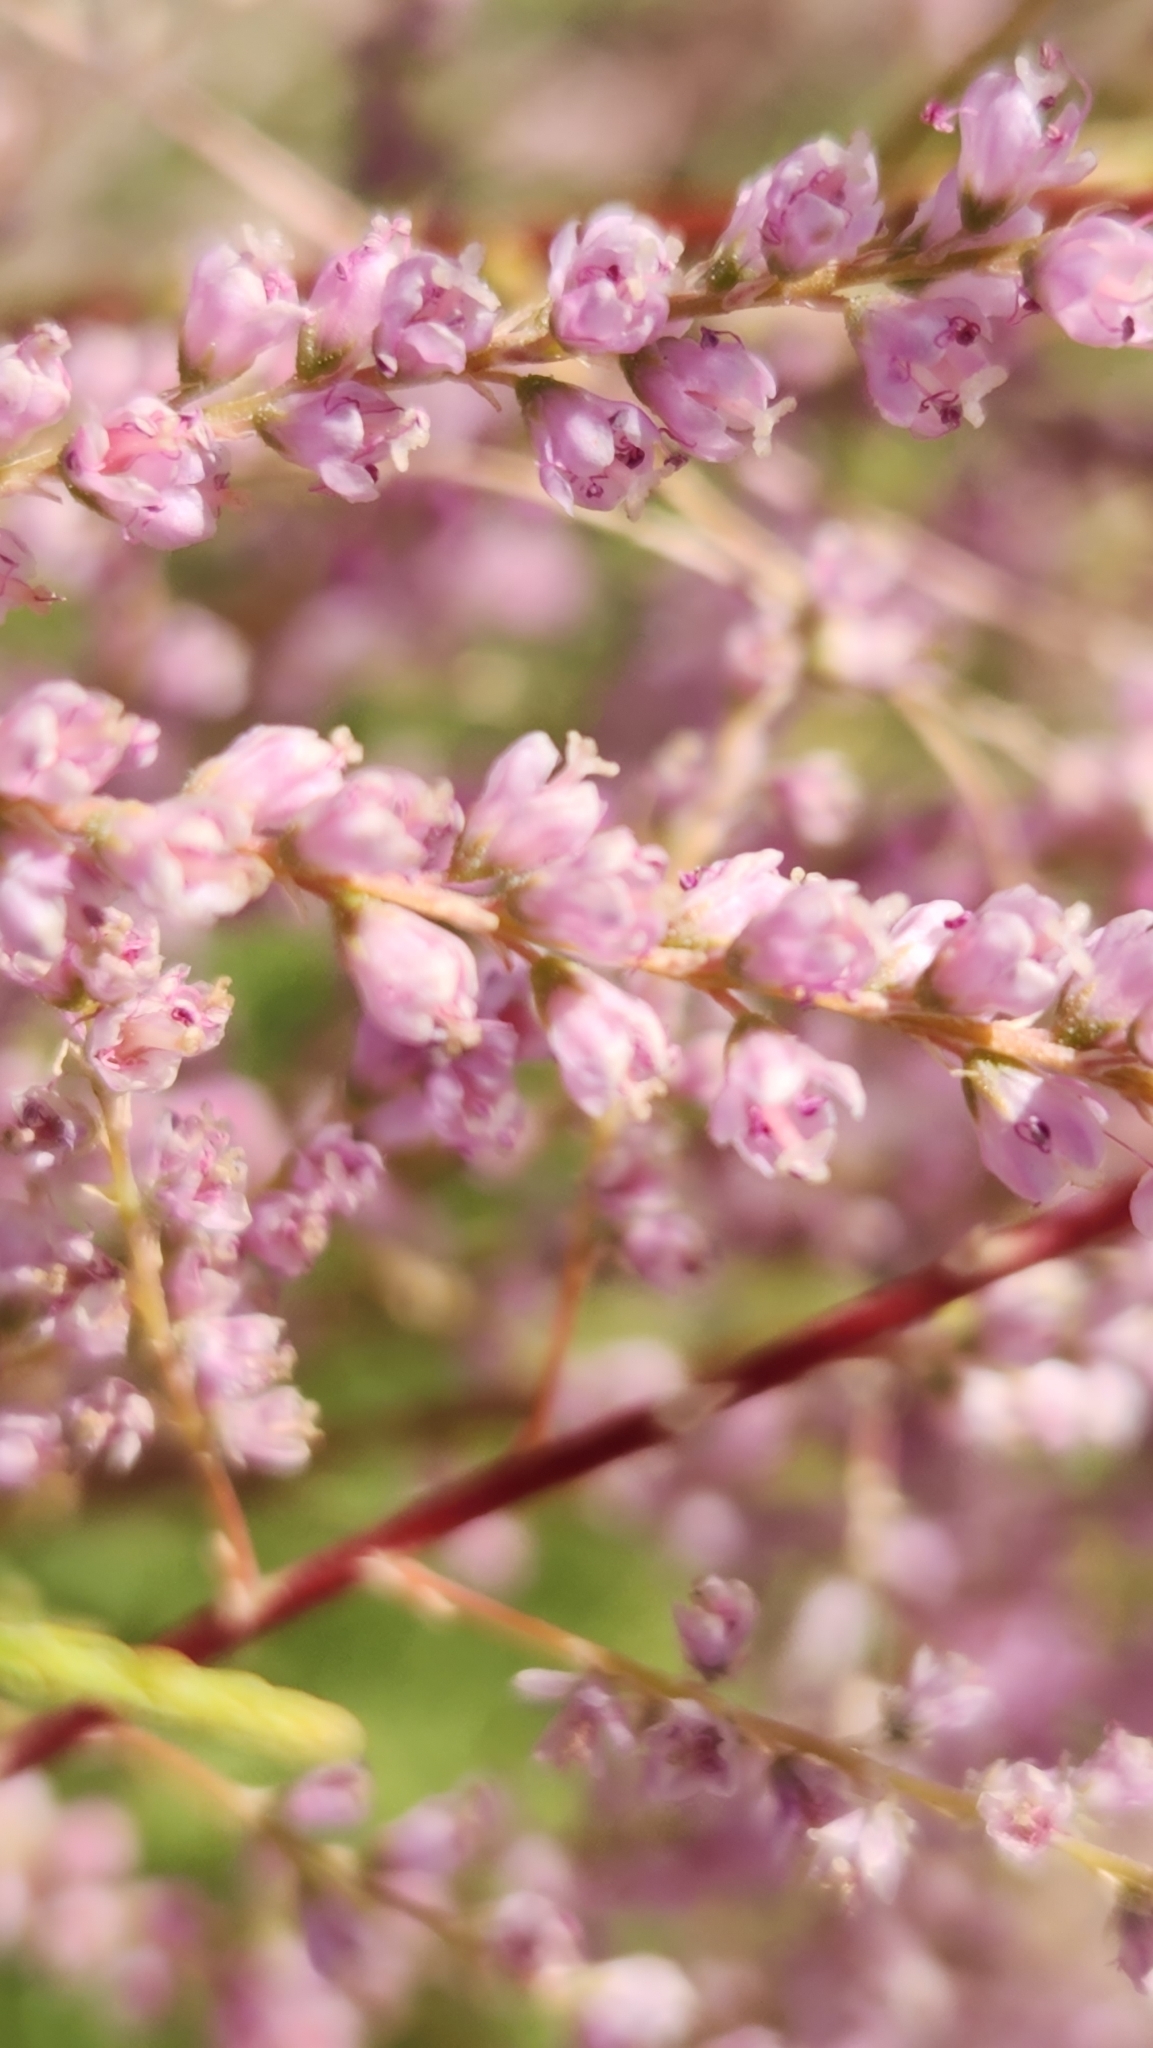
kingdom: Plantae
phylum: Tracheophyta
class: Magnoliopsida
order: Caryophyllales
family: Tamaricaceae
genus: Tamarix
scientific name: Tamarix ramosissima
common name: Pink tamarisk
